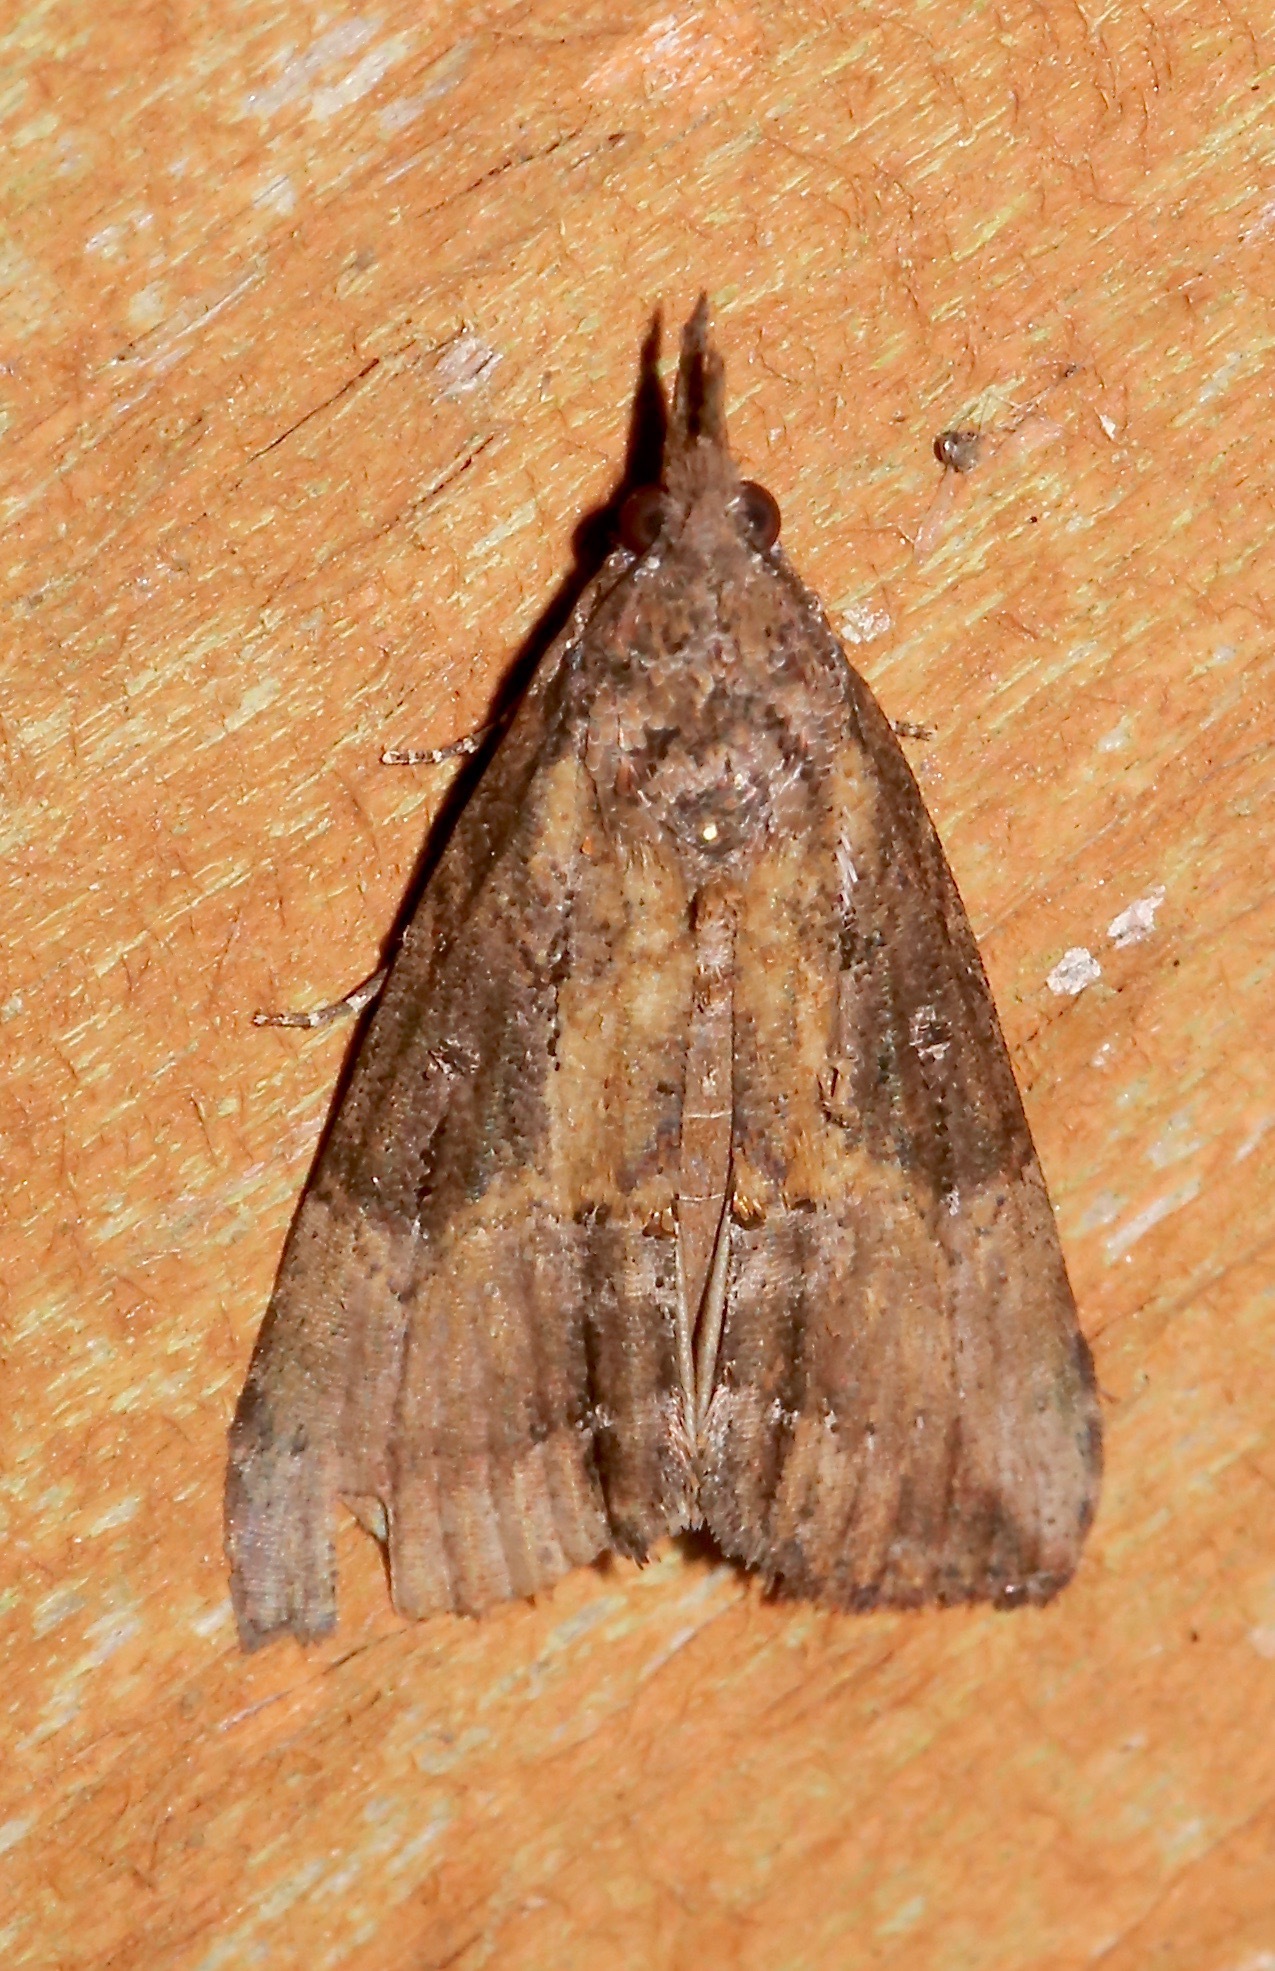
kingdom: Animalia
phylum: Arthropoda
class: Insecta
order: Lepidoptera
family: Erebidae
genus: Hypena
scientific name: Hypena scabra
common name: Green cloverworm
